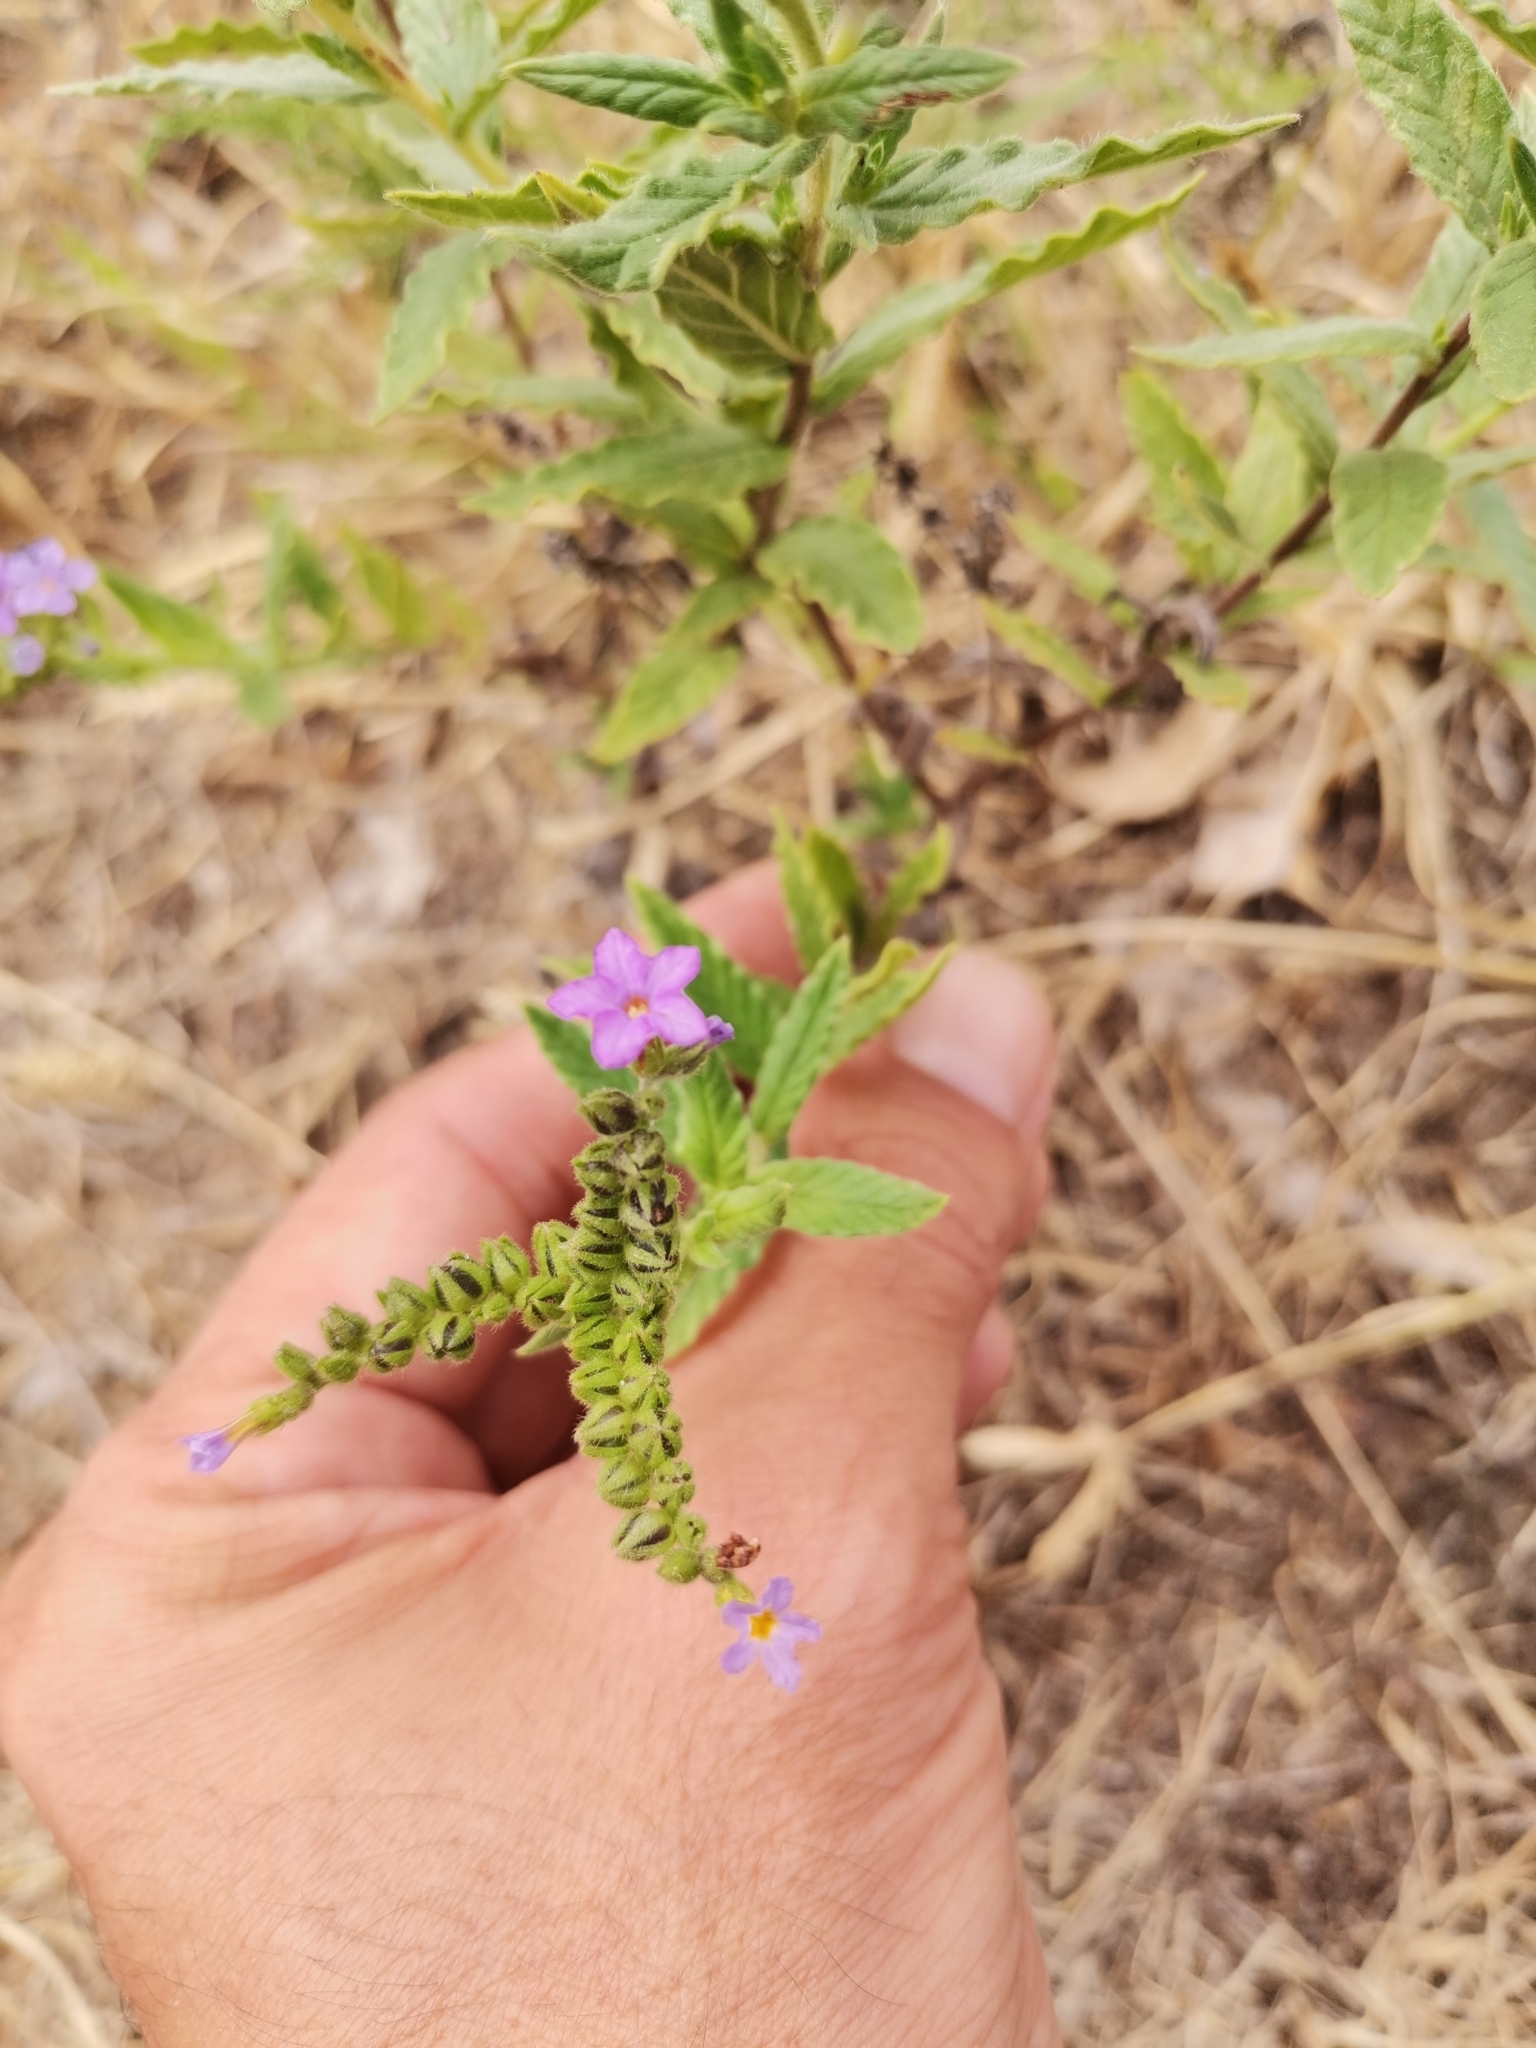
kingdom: Plantae
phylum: Tracheophyta
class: Magnoliopsida
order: Boraginales
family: Heliotropiaceae
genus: Heliotropium
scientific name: Heliotropium amplexicaule
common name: Clasping heliotrope
